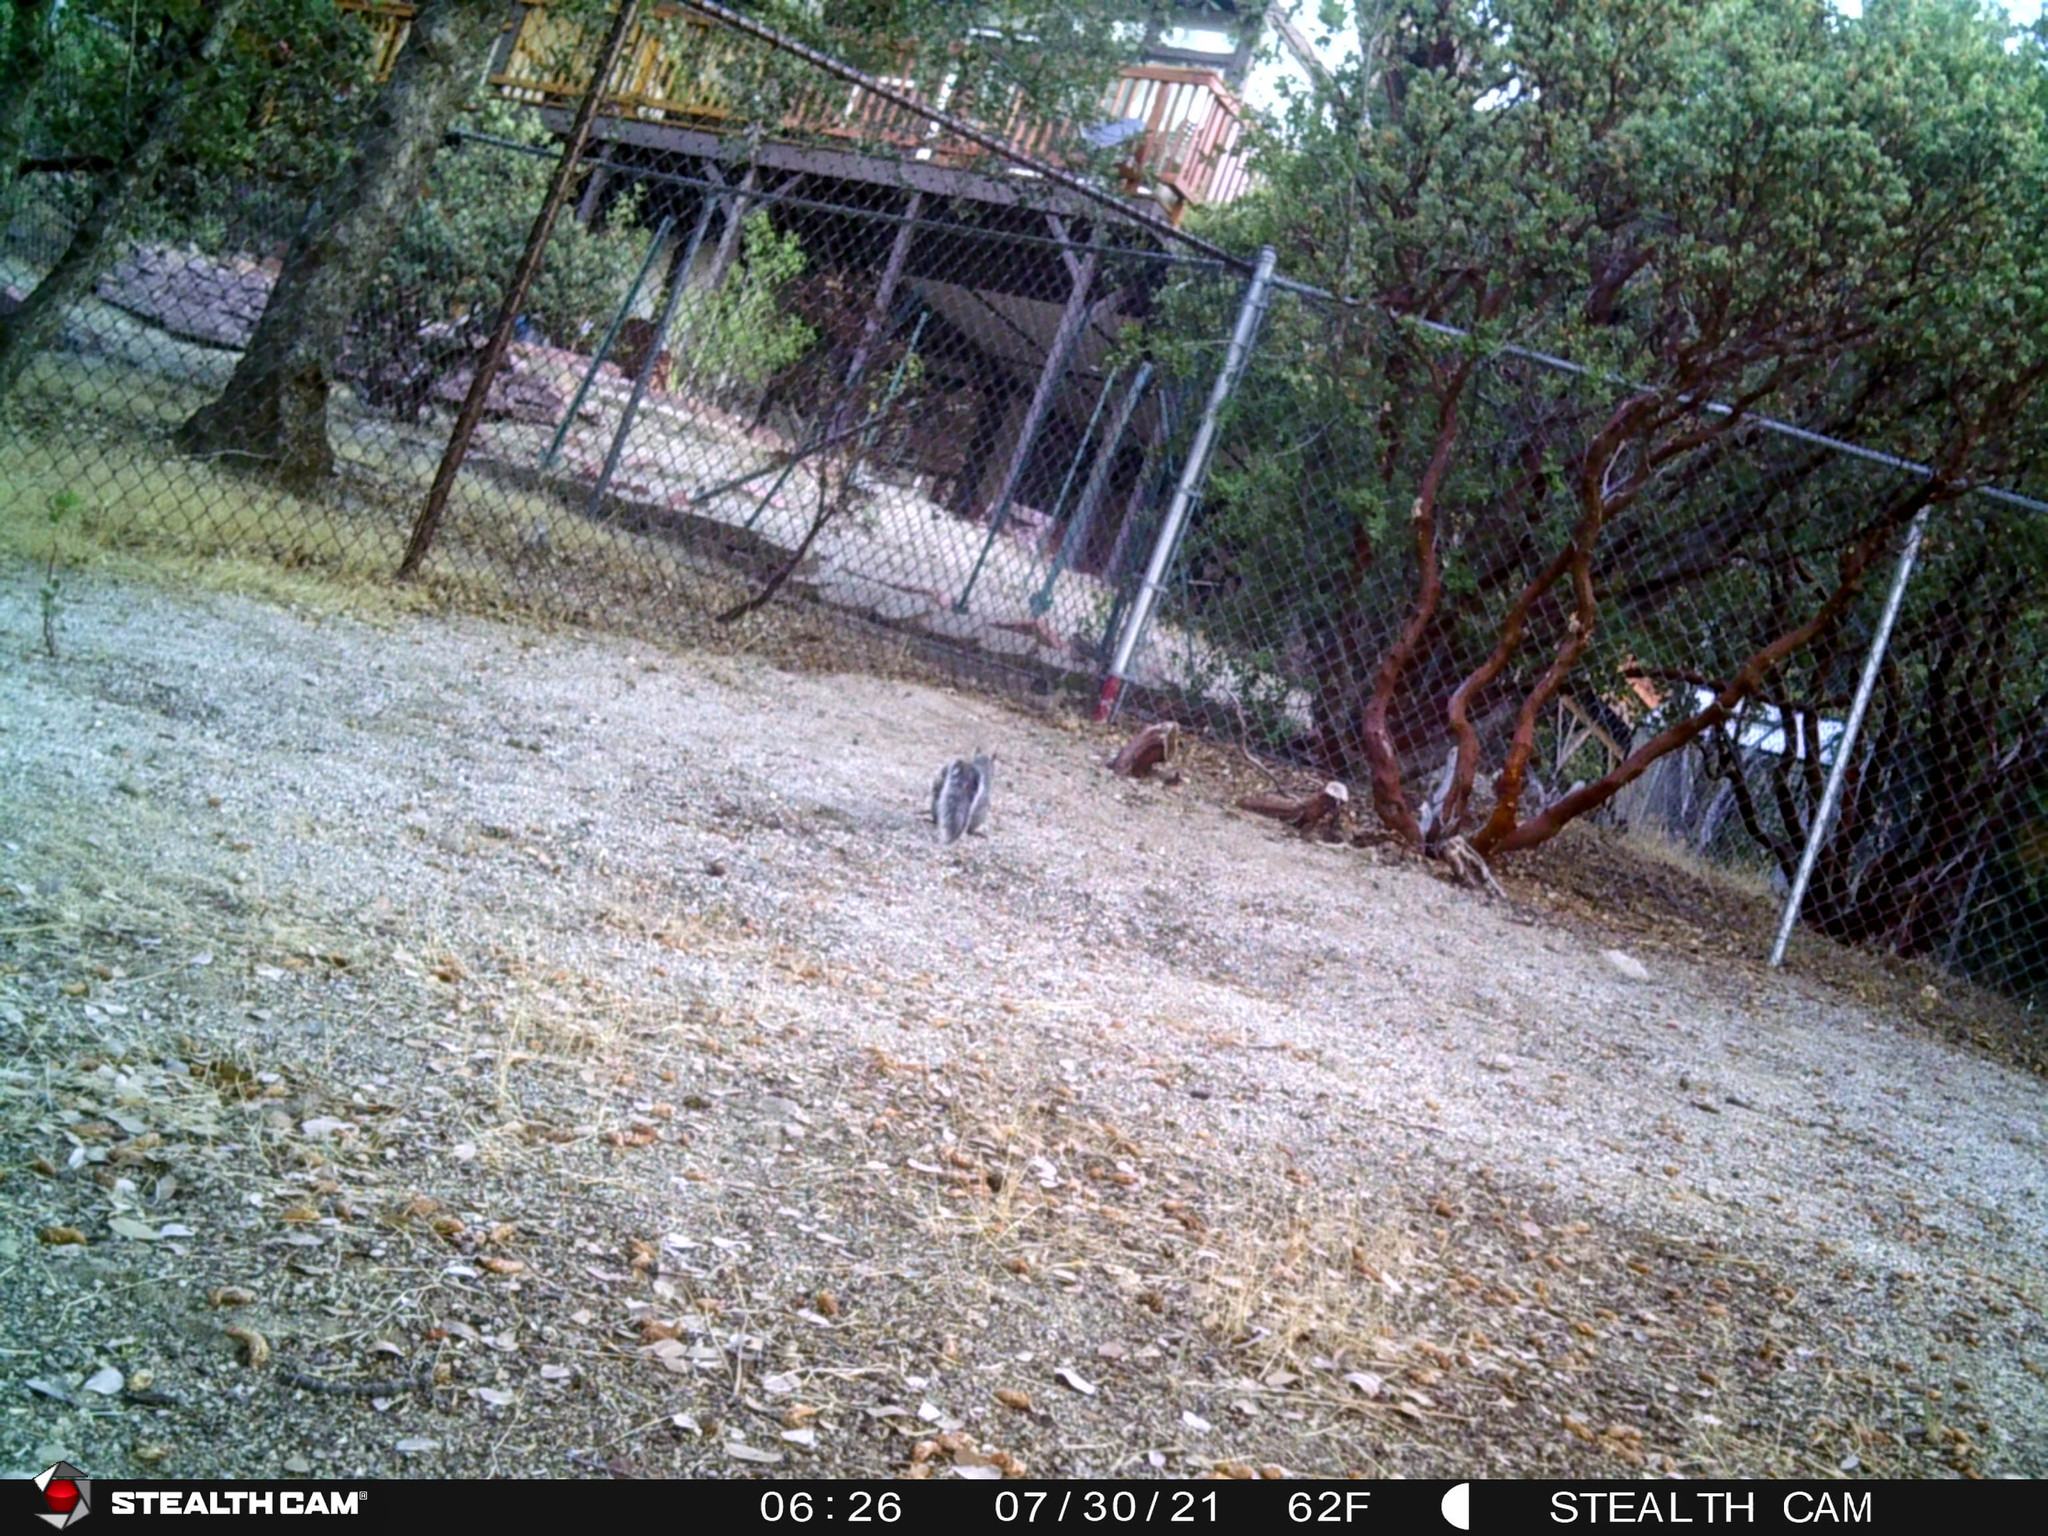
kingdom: Animalia
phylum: Chordata
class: Mammalia
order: Rodentia
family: Sciuridae
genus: Sciurus
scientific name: Sciurus griseus
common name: Western gray squirrel
